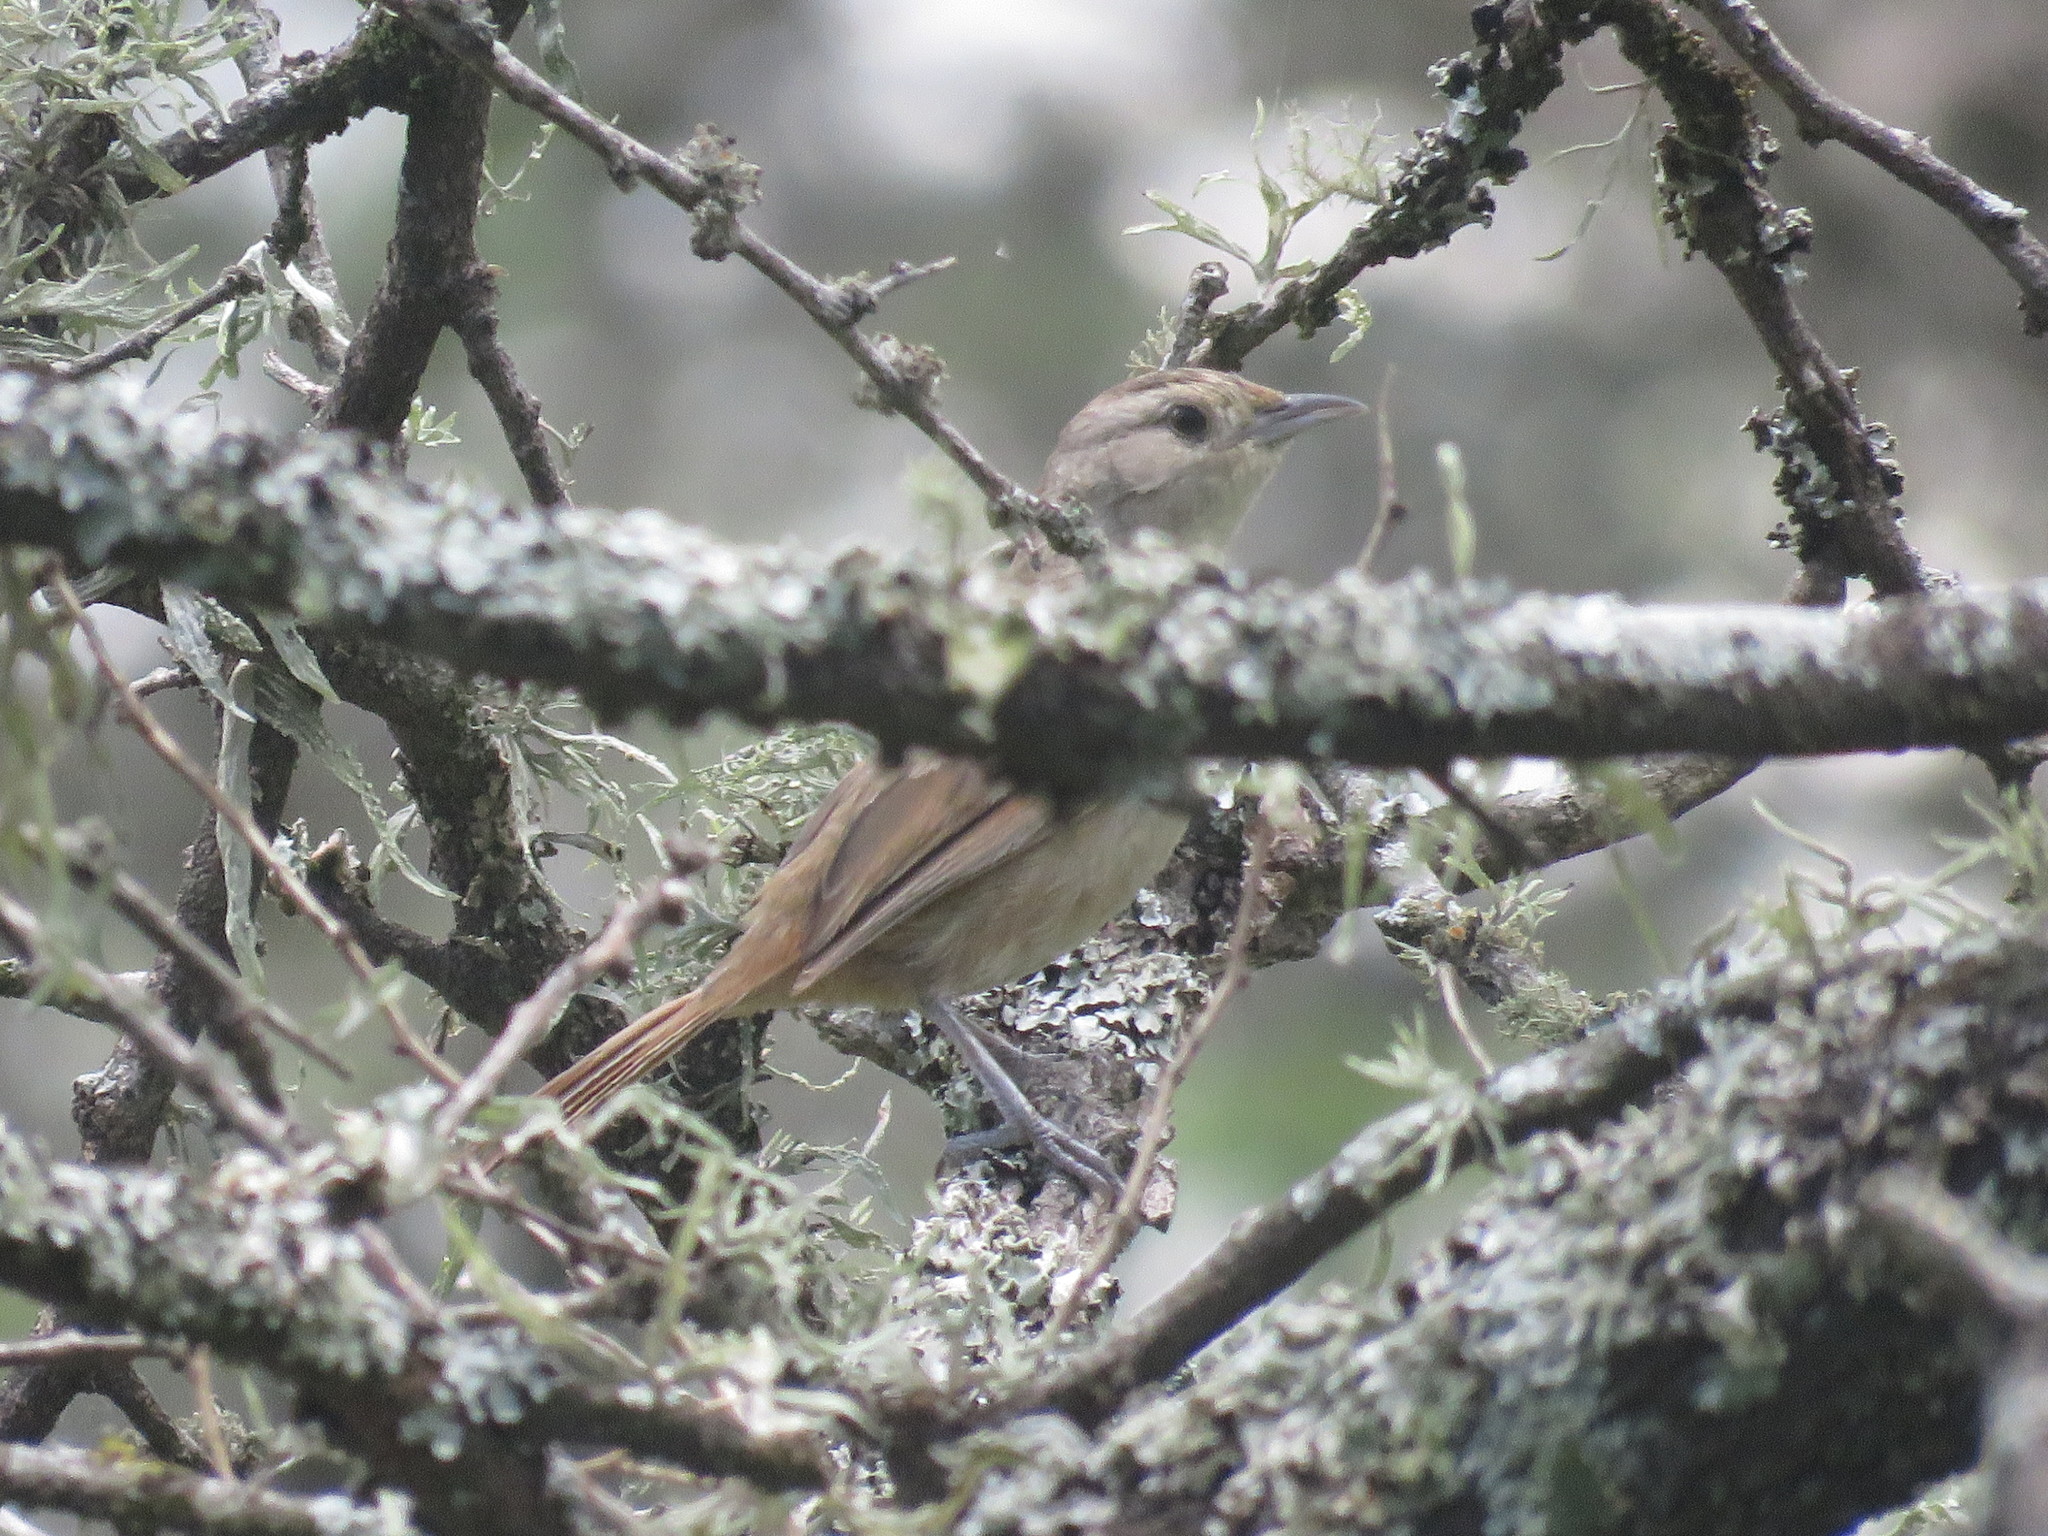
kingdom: Animalia
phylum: Chordata
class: Aves
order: Passeriformes
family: Furnariidae
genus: Phacellodomus
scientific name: Phacellodomus sibilatrix
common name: Little thornbird
